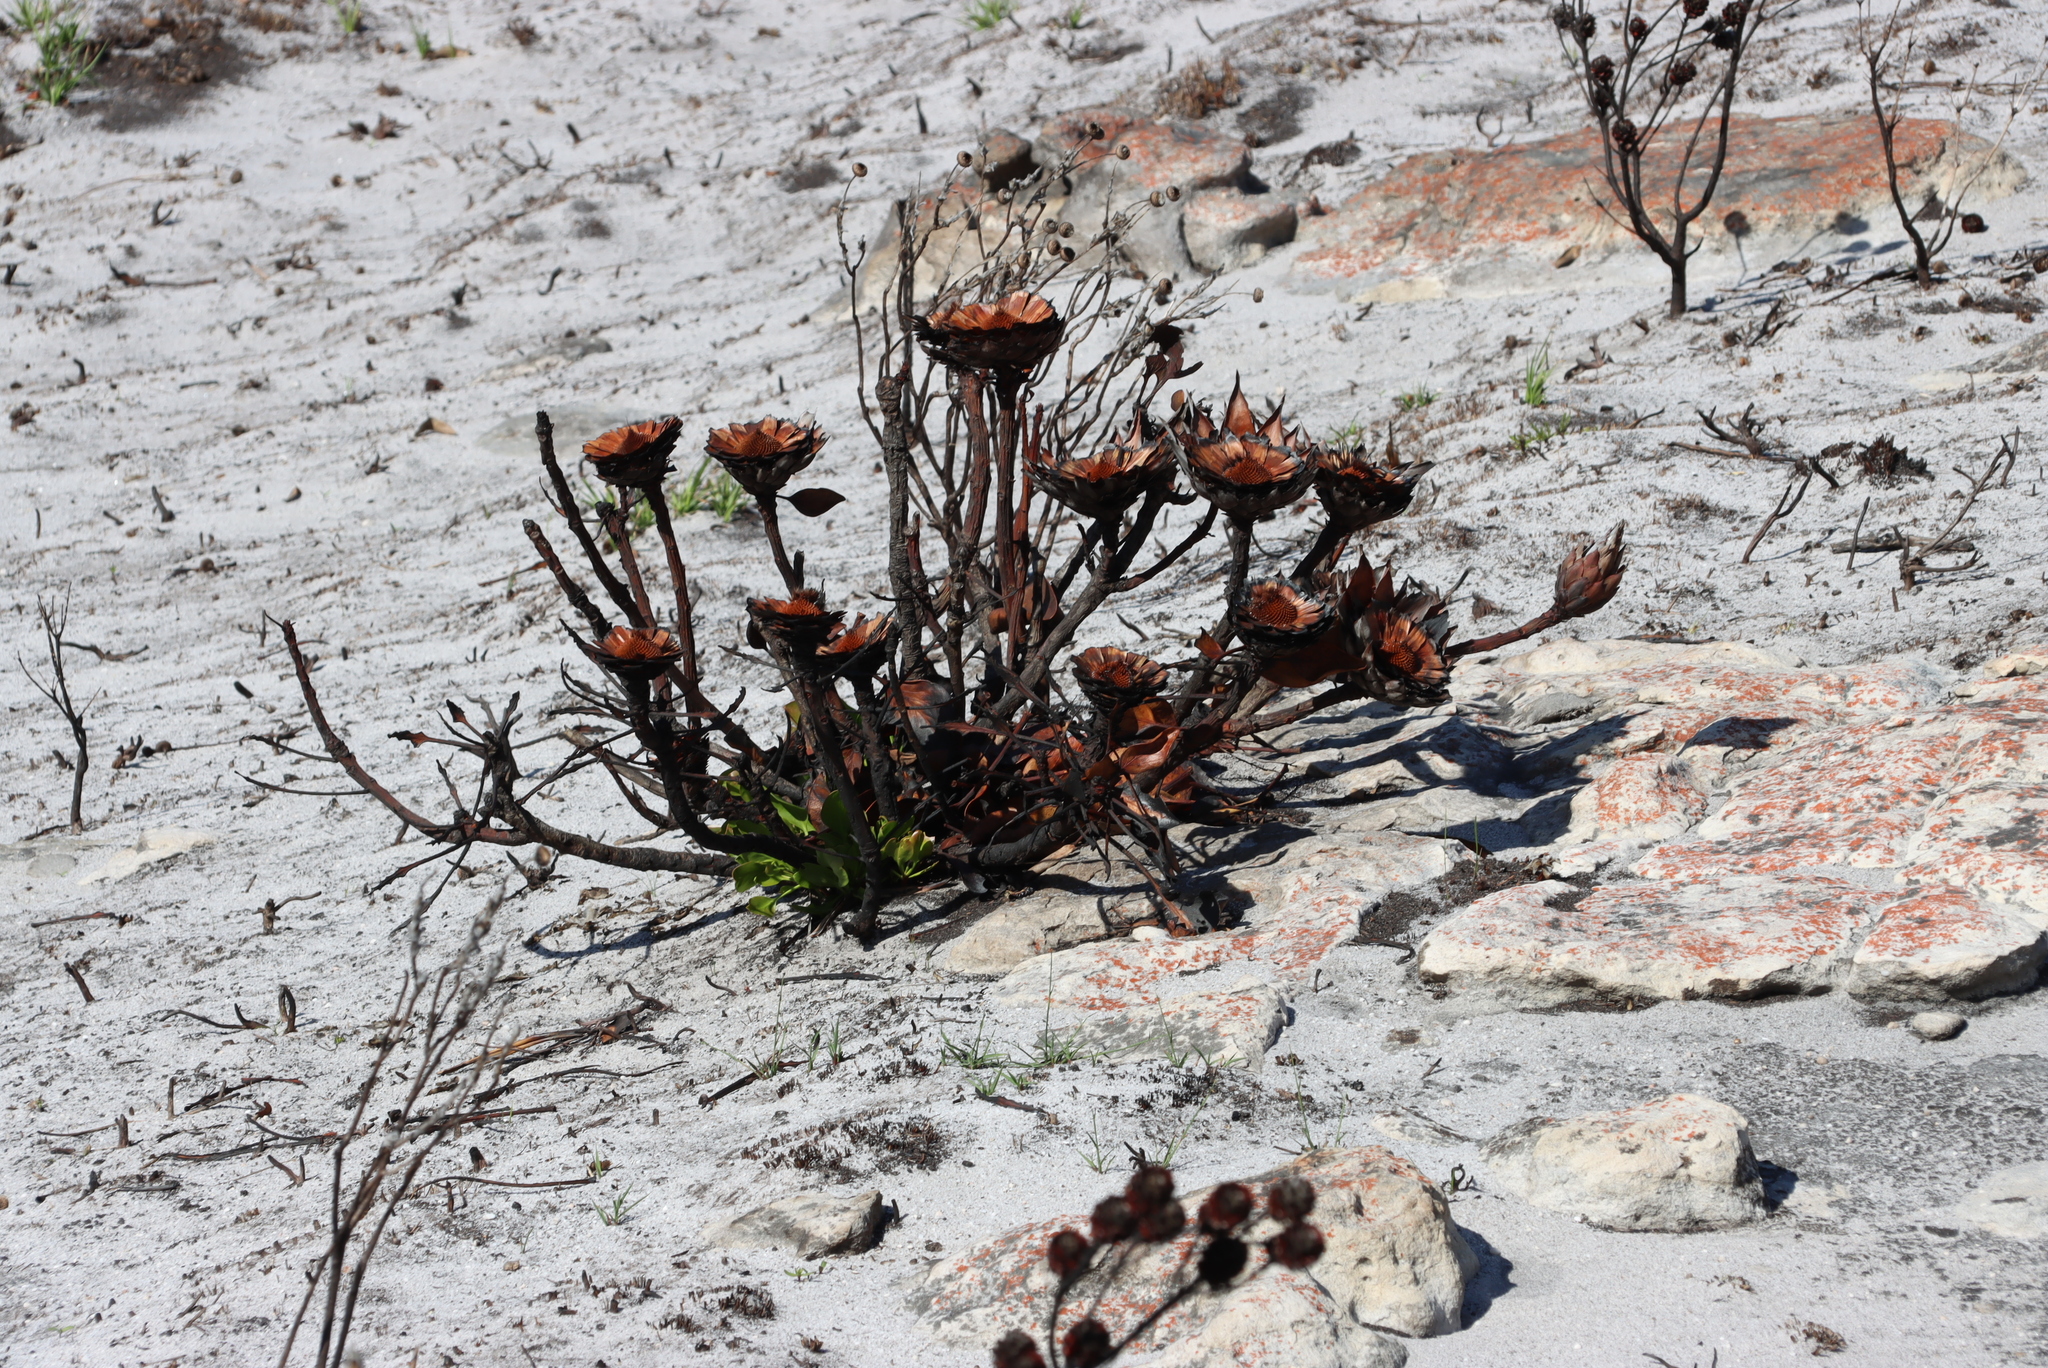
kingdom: Plantae
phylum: Tracheophyta
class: Magnoliopsida
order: Proteales
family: Proteaceae
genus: Protea
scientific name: Protea cynaroides
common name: King protea
